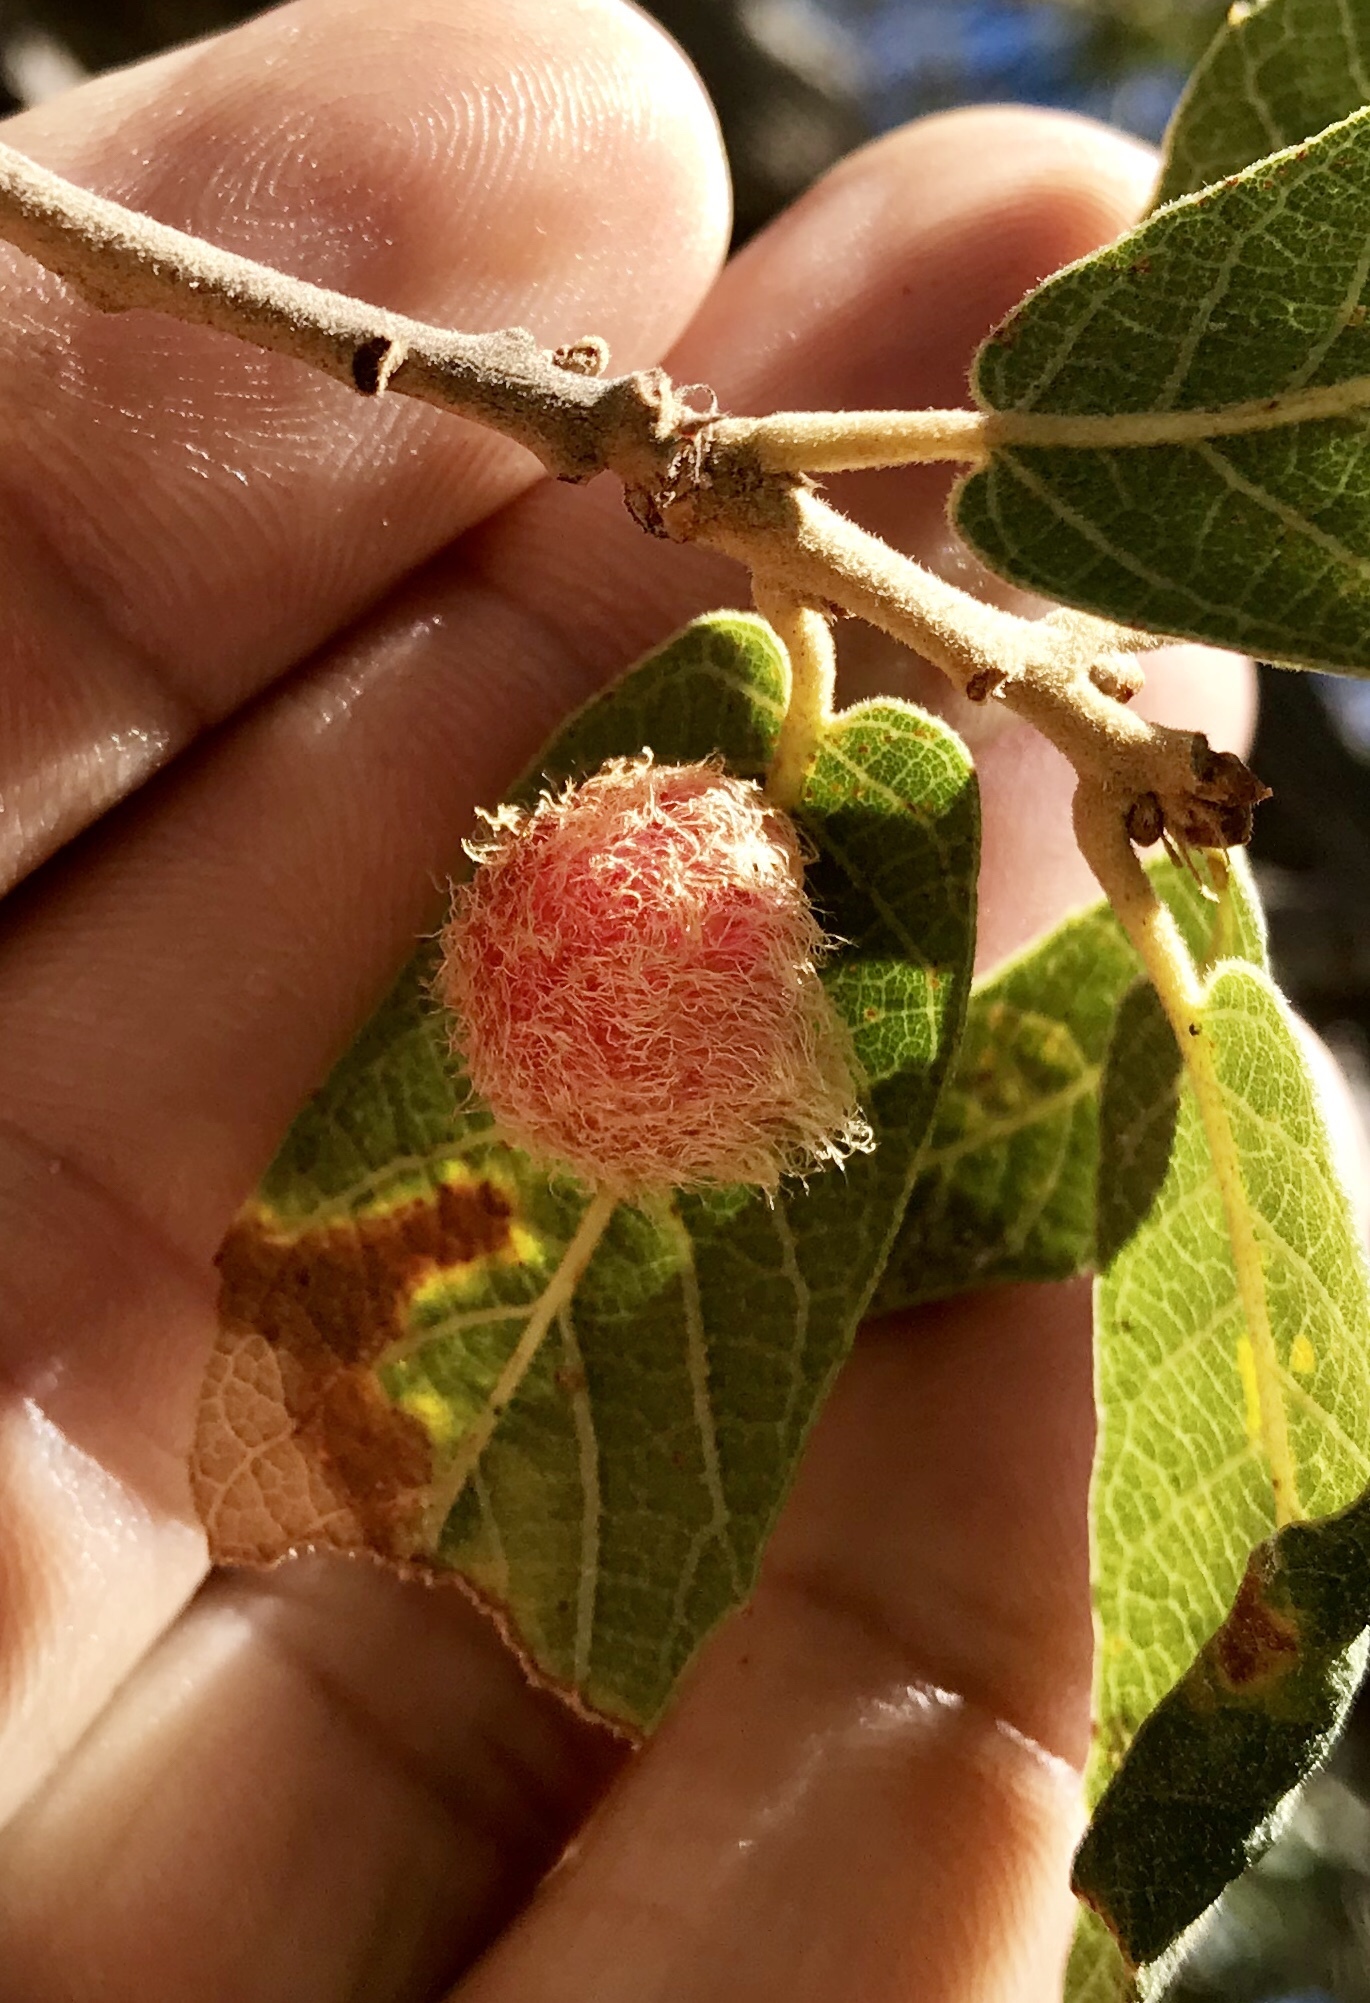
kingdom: Animalia
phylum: Arthropoda
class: Insecta
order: Hymenoptera
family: Cynipidae
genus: Cynips
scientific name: Cynips
